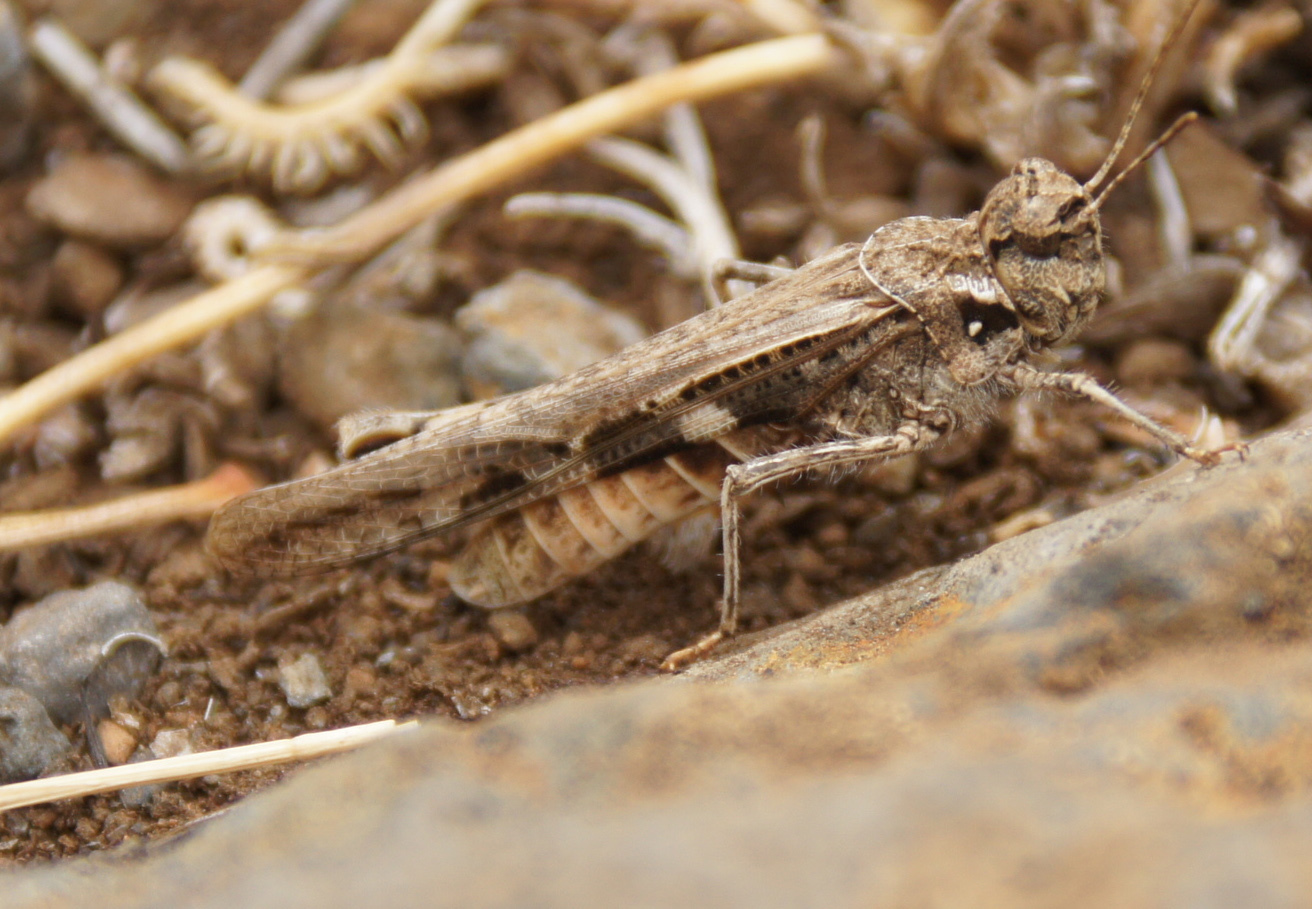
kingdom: Animalia
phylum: Arthropoda
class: Insecta
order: Orthoptera
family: Acrididae
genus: Acrotylus
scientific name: Acrotylus insubricus
